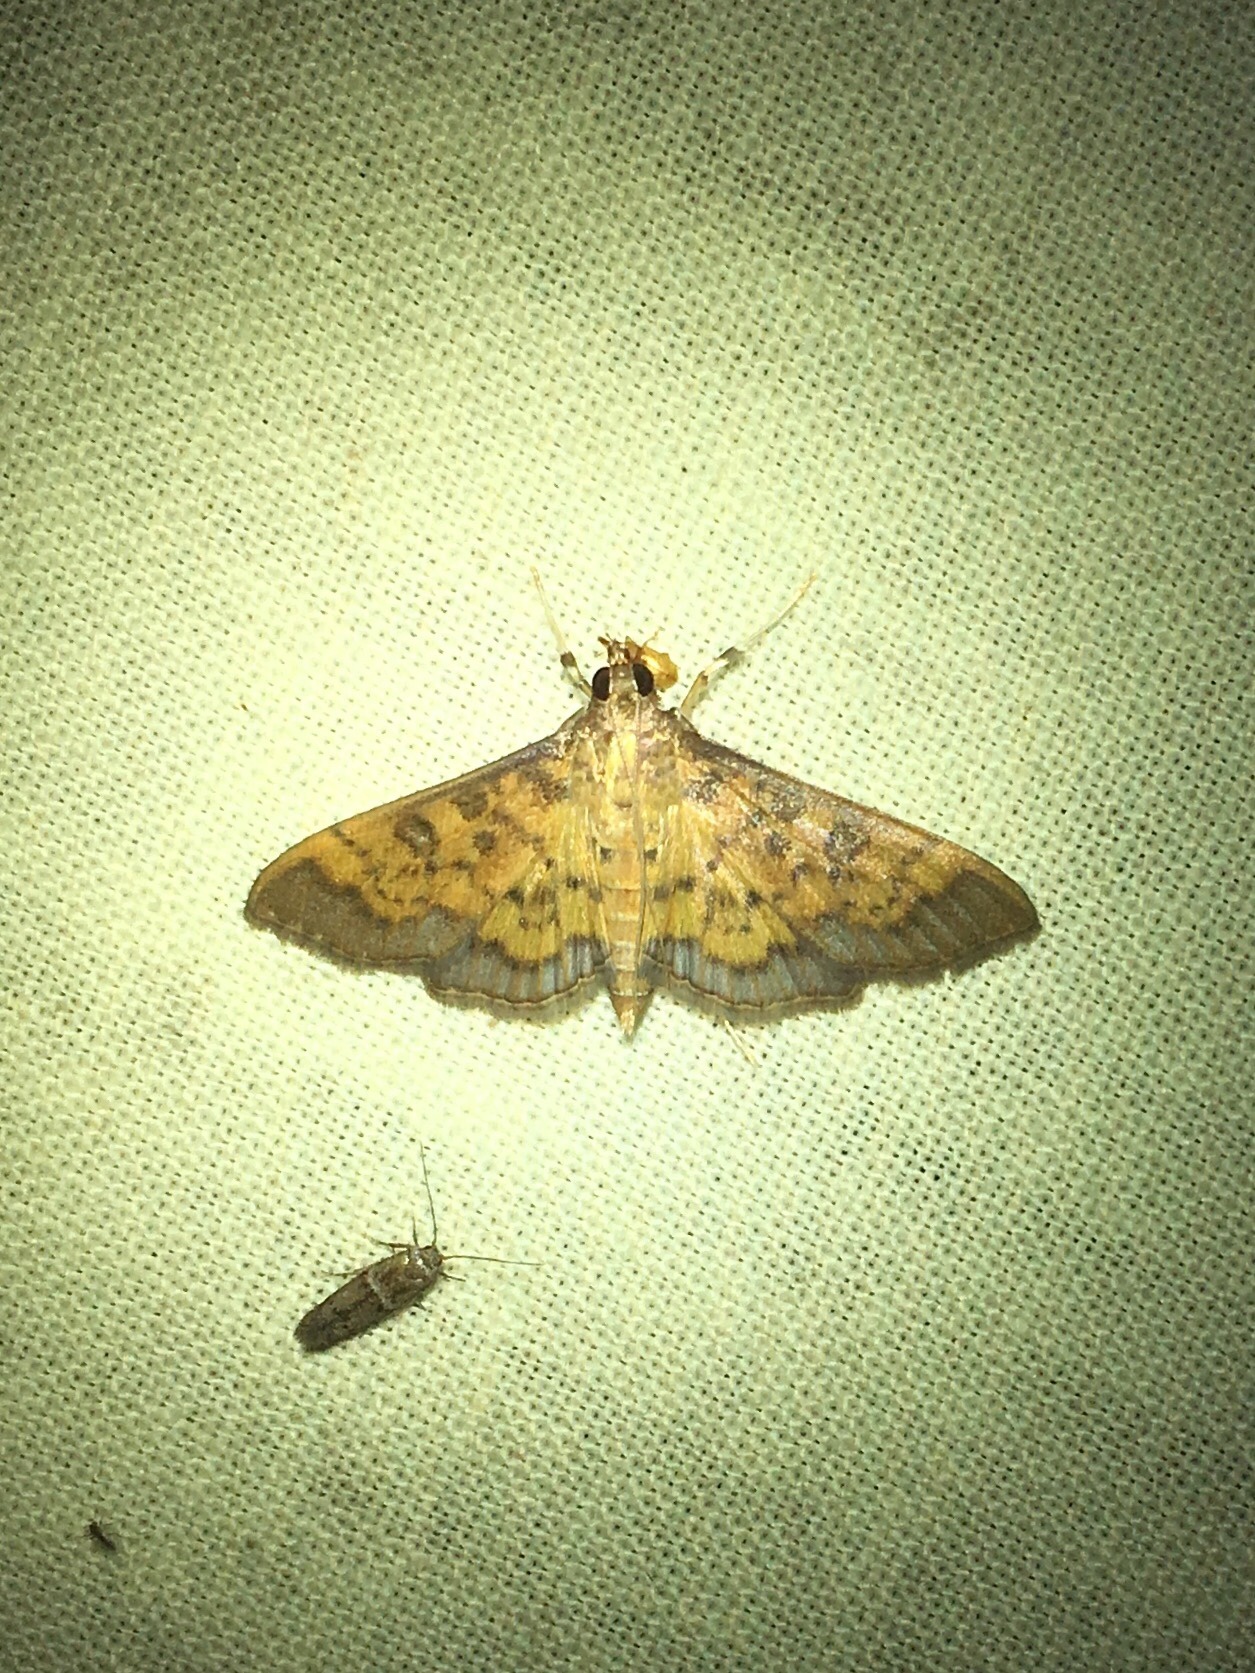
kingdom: Animalia
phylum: Arthropoda
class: Insecta
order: Lepidoptera
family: Crambidae
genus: Diacme
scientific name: Diacme phyllisalis
